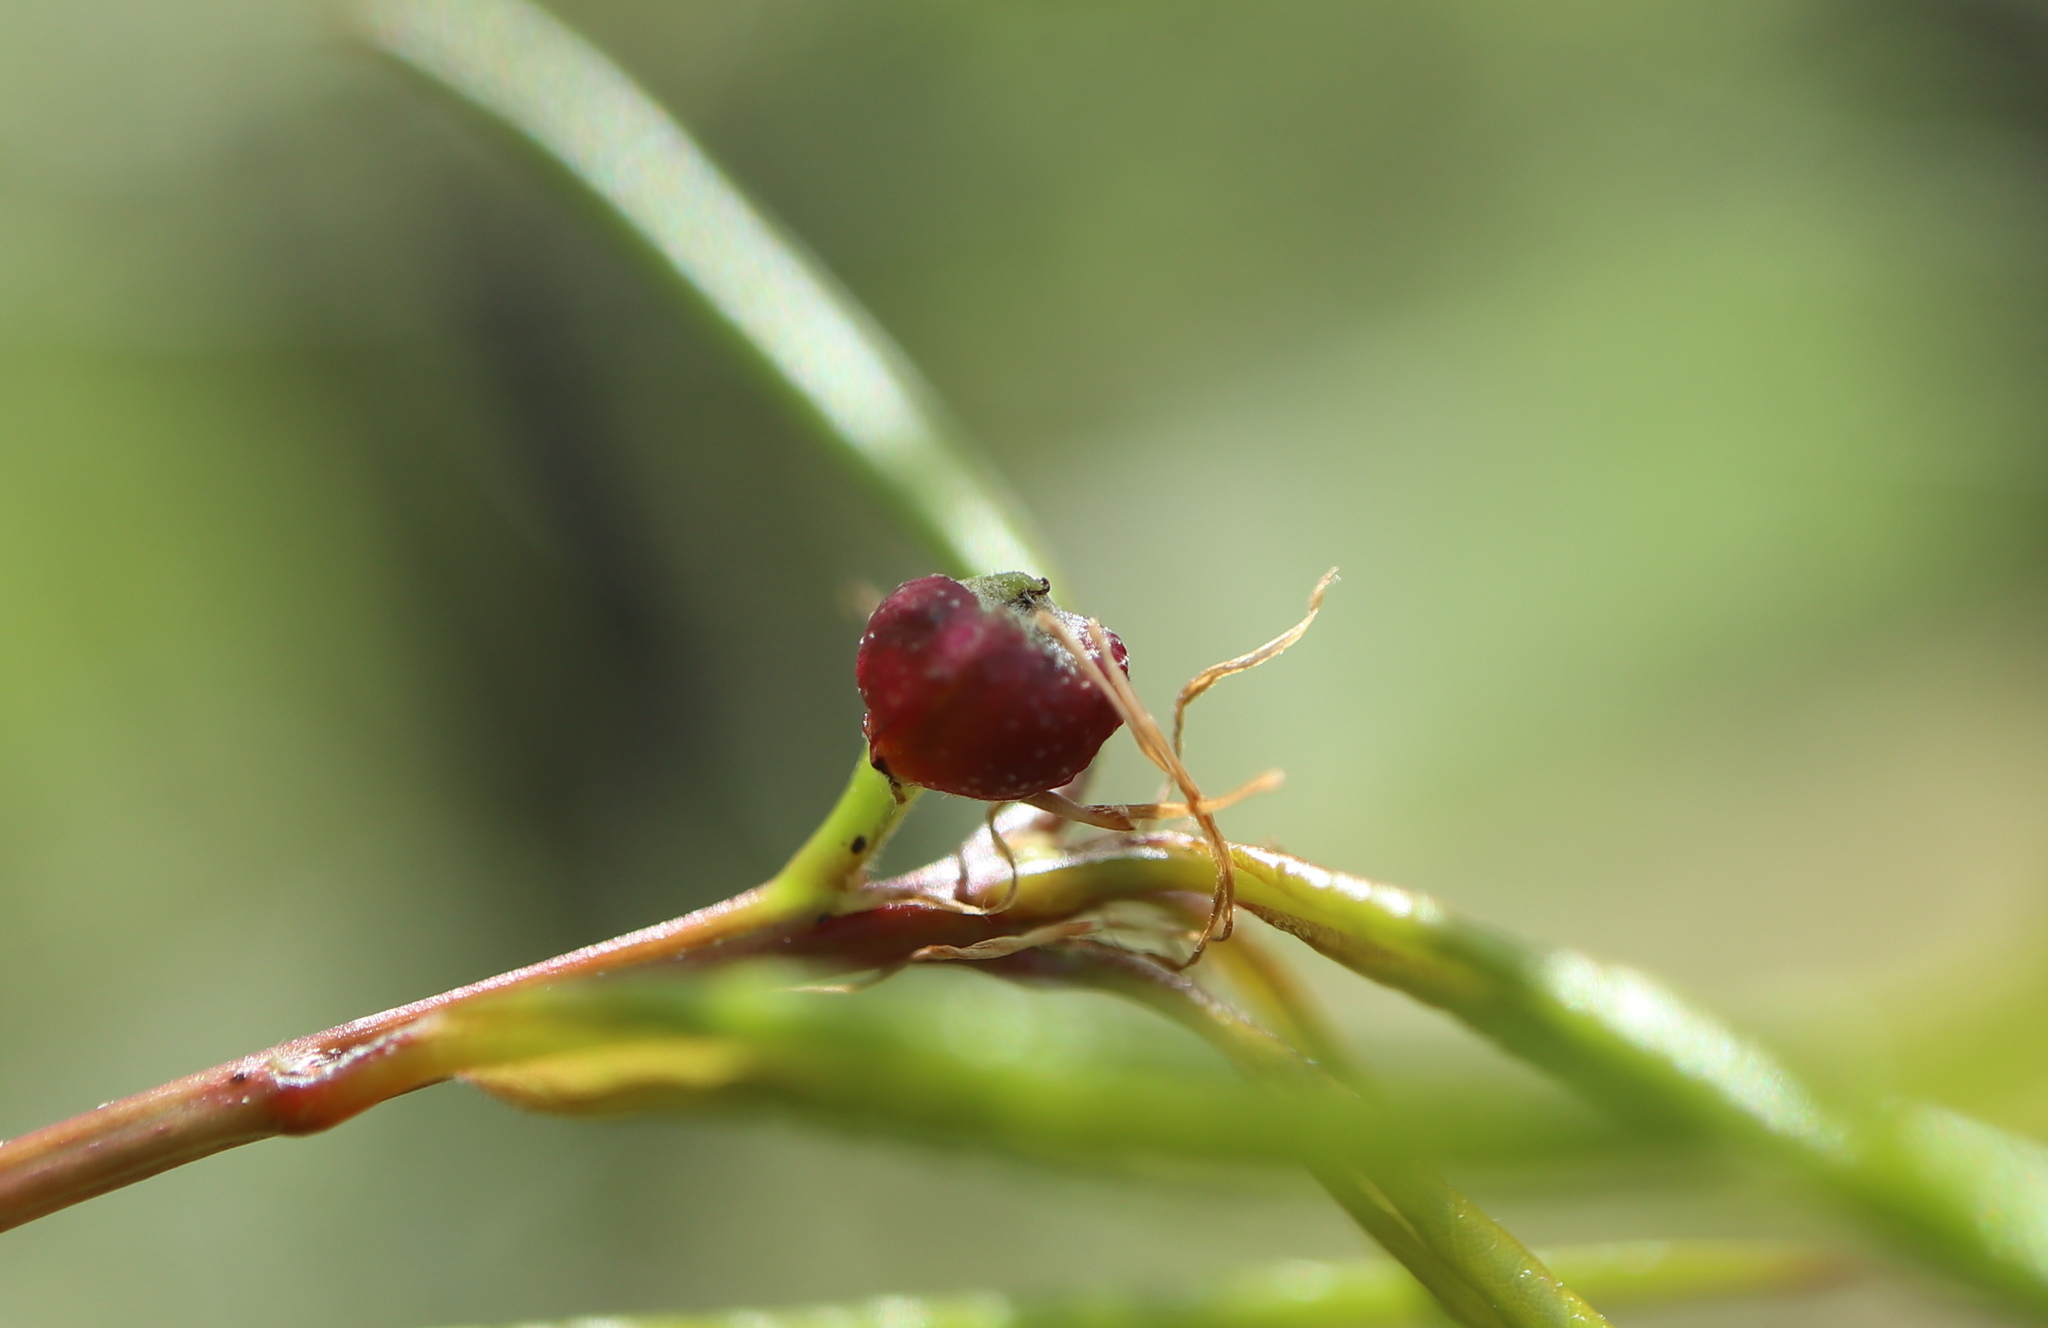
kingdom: Animalia
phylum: Arthropoda
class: Insecta
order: Hymenoptera
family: Cynipidae
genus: Dryocosmus
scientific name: Dryocosmus
